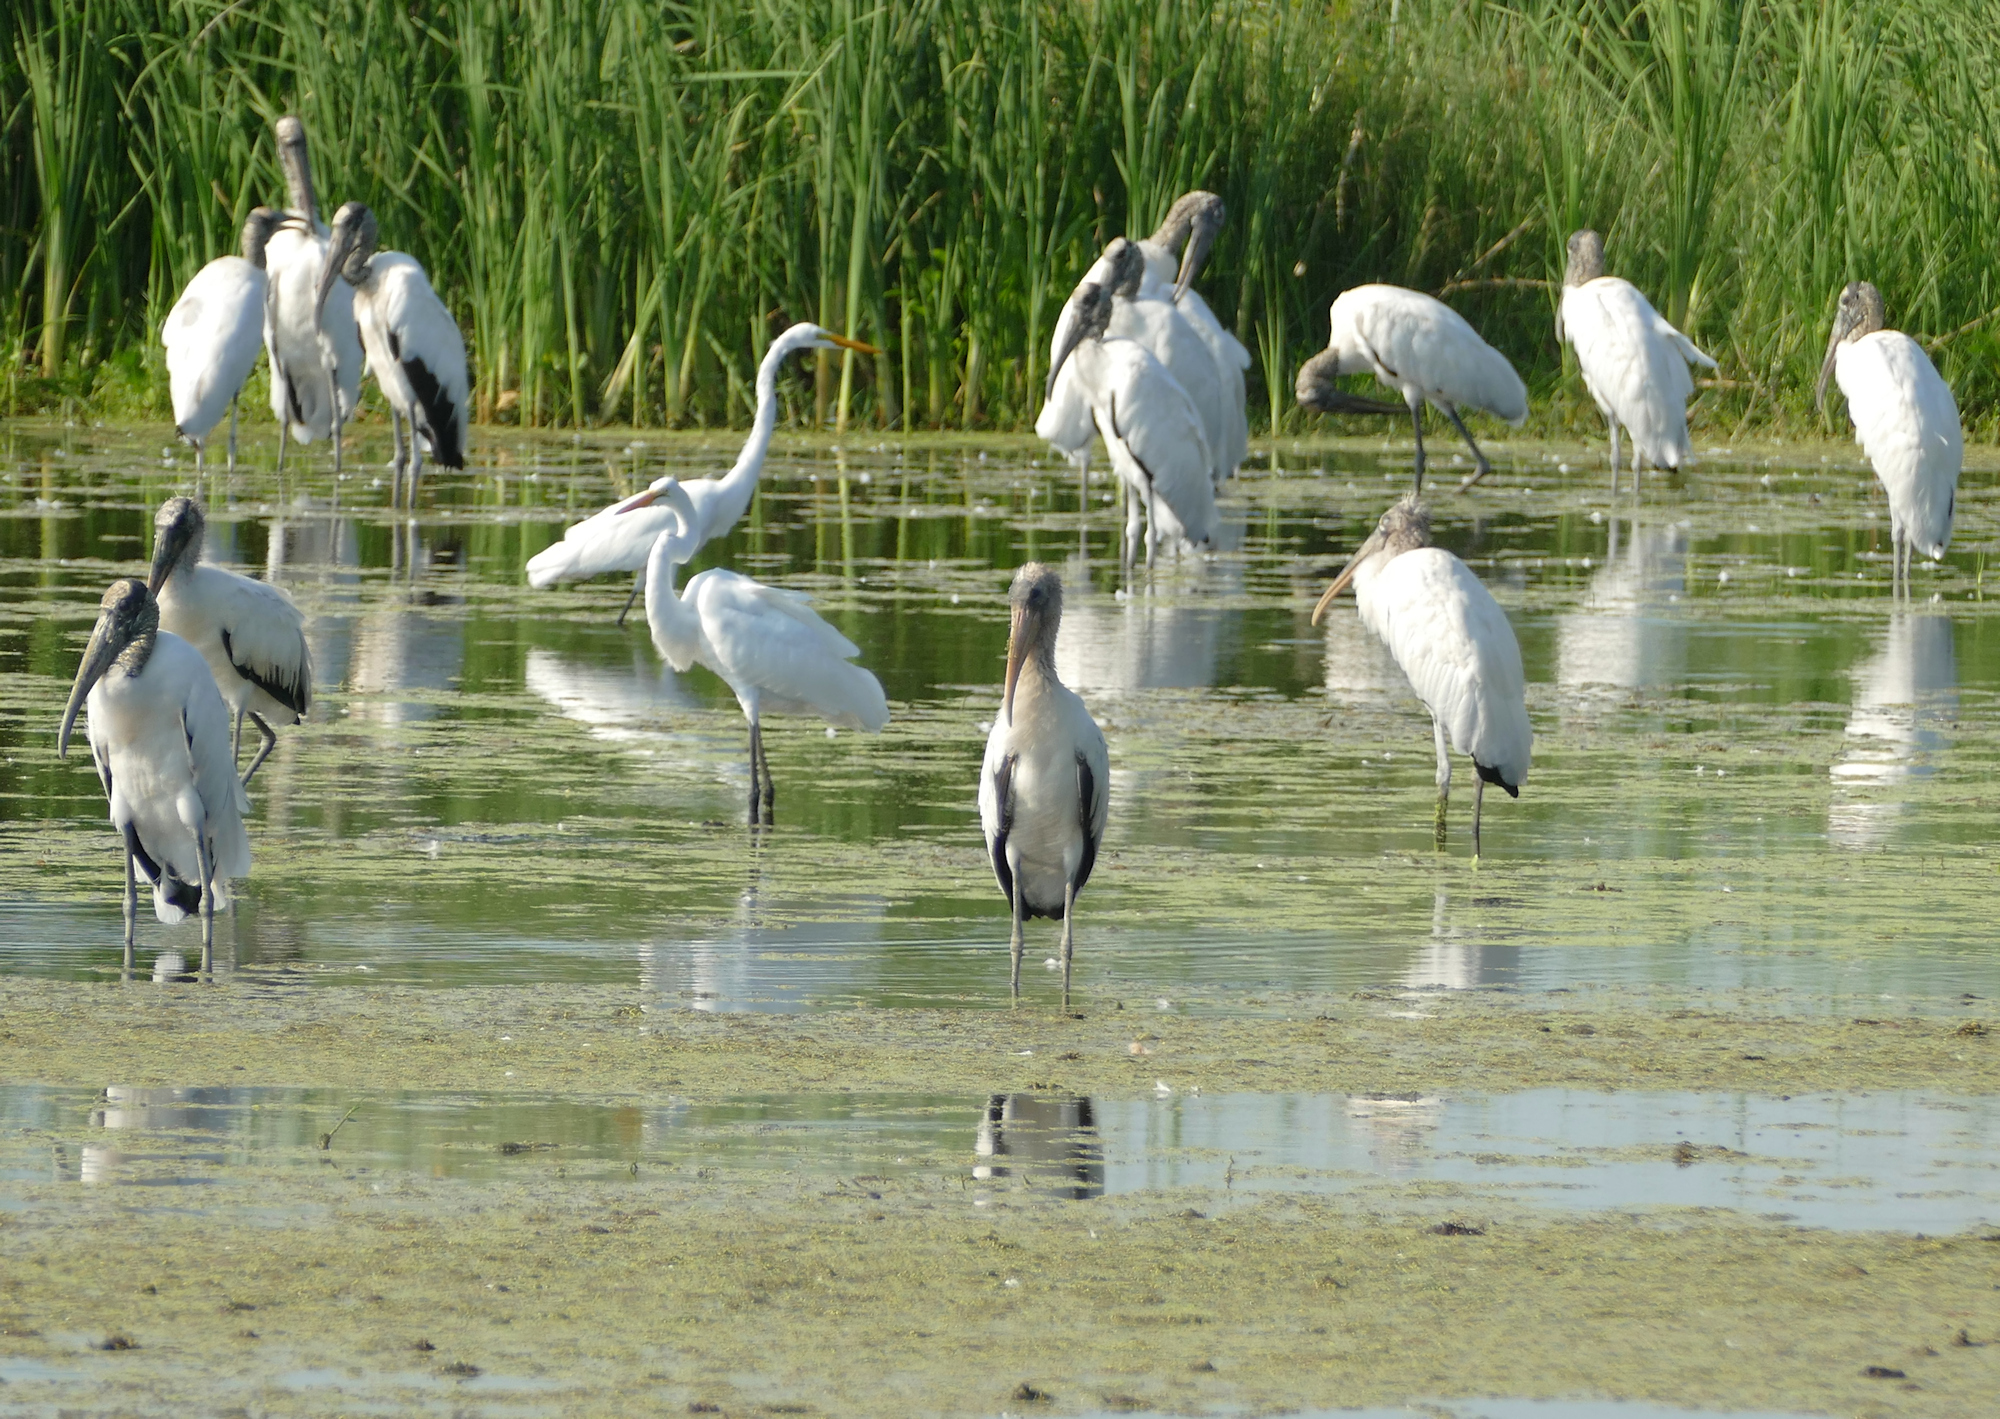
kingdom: Animalia
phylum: Chordata
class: Aves
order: Ciconiiformes
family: Ciconiidae
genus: Mycteria
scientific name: Mycteria americana
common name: Wood stork
